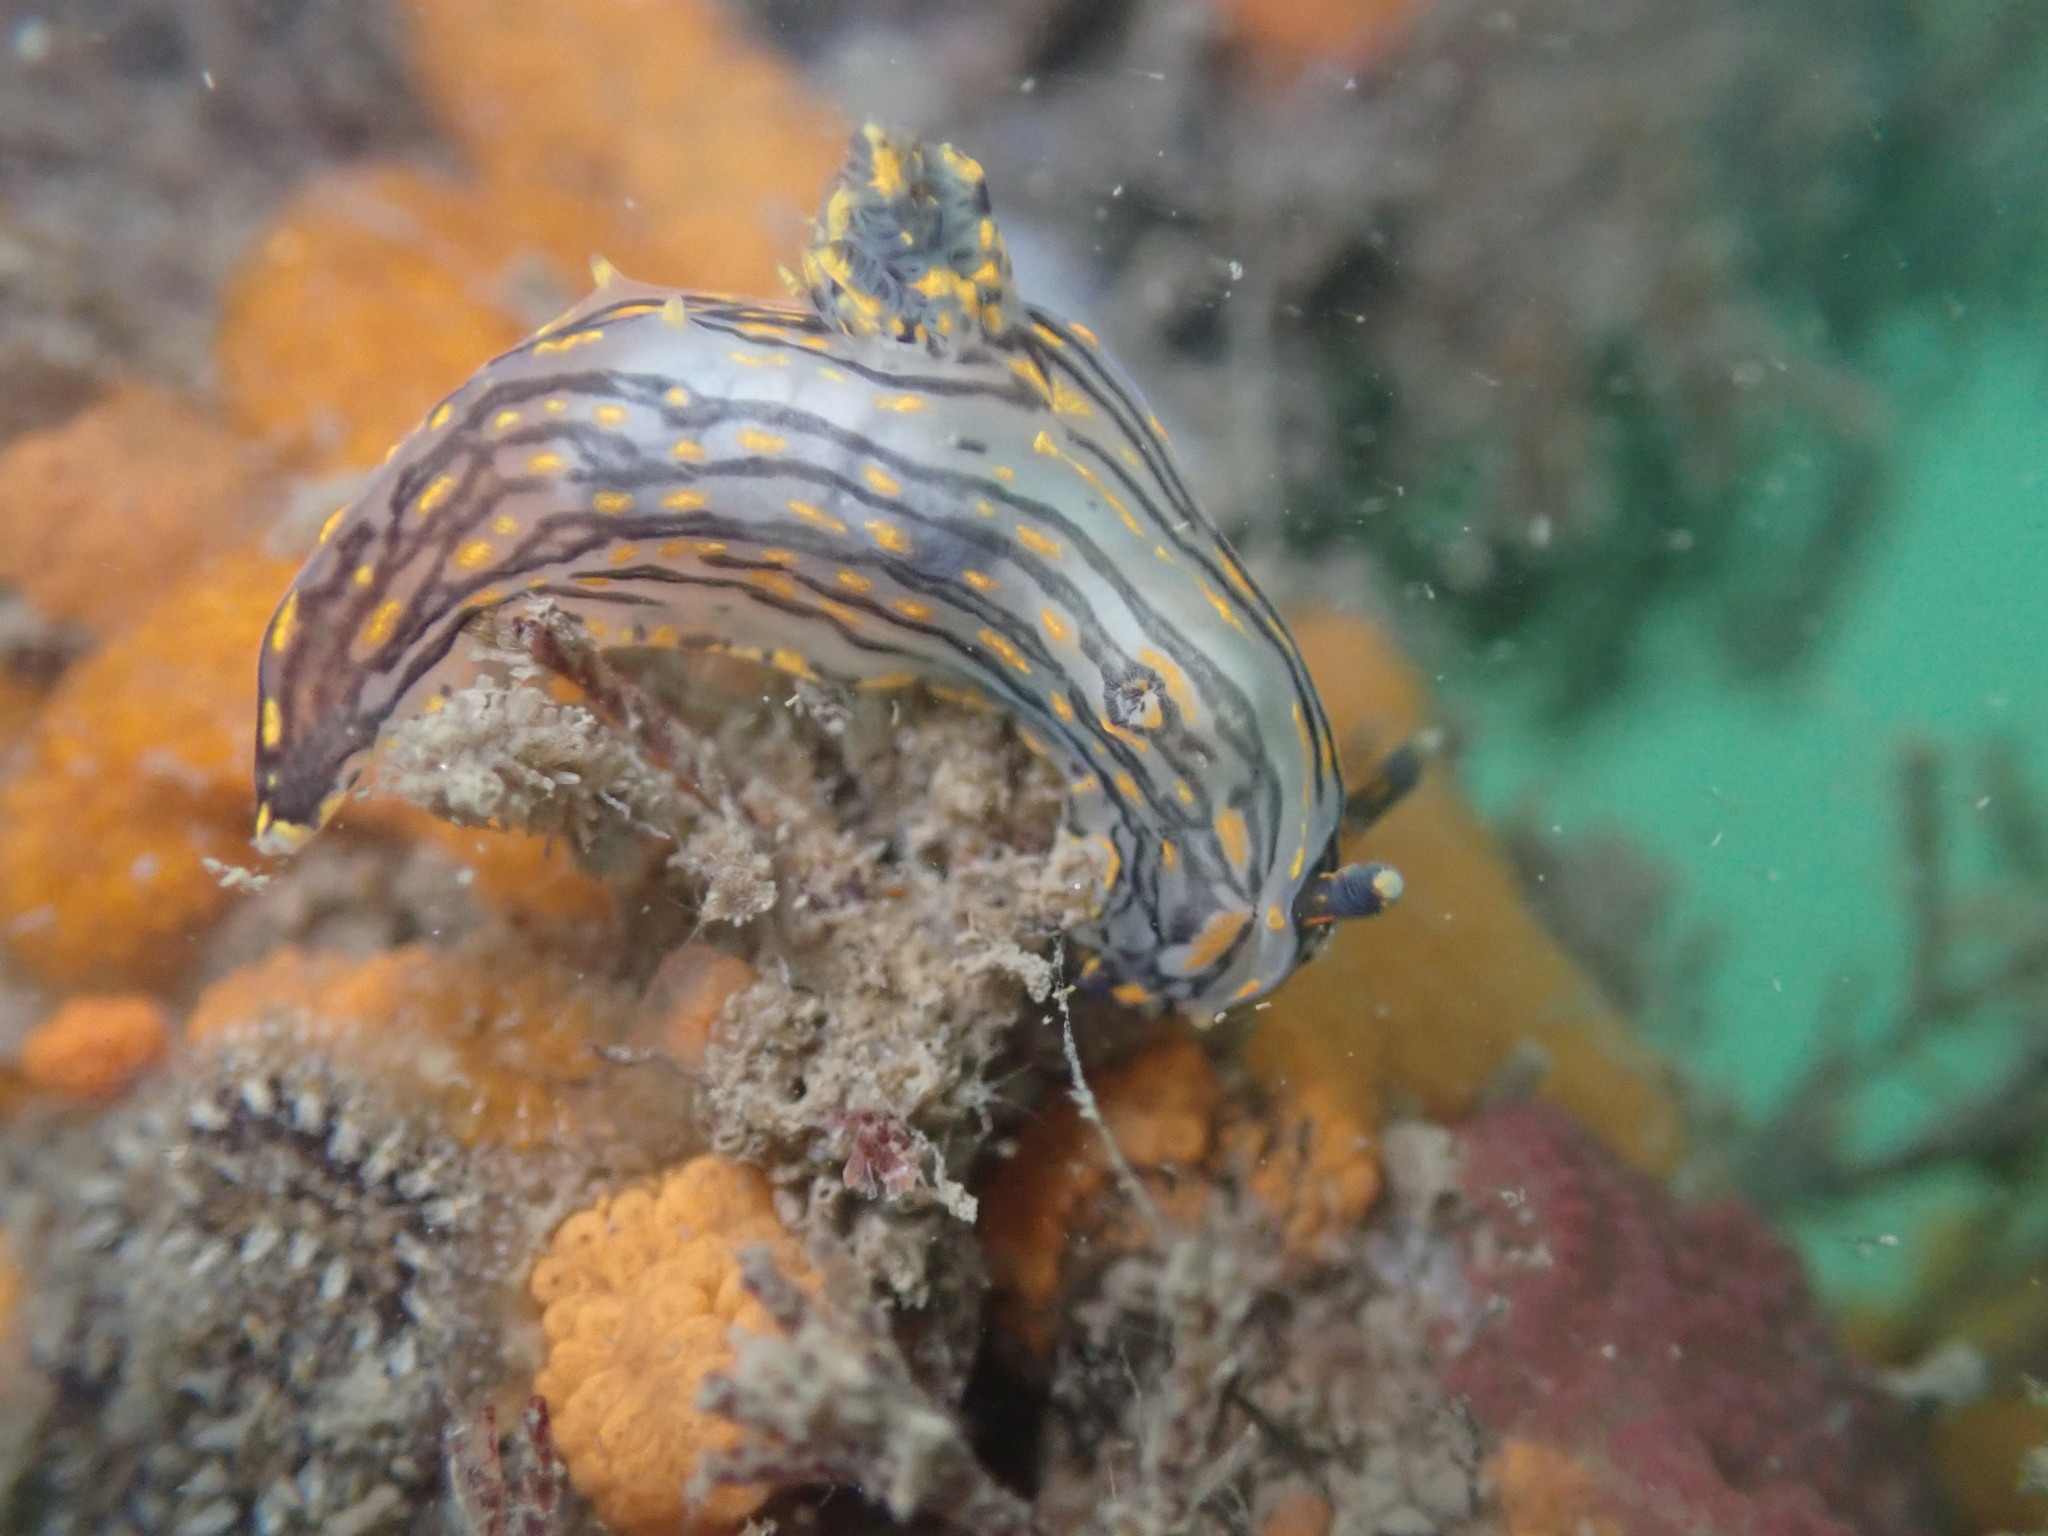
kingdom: Animalia
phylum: Mollusca
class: Gastropoda
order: Nudibranchia
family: Polyceridae
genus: Polycera
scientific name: Polycera atra
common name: Orange-spike polycera
